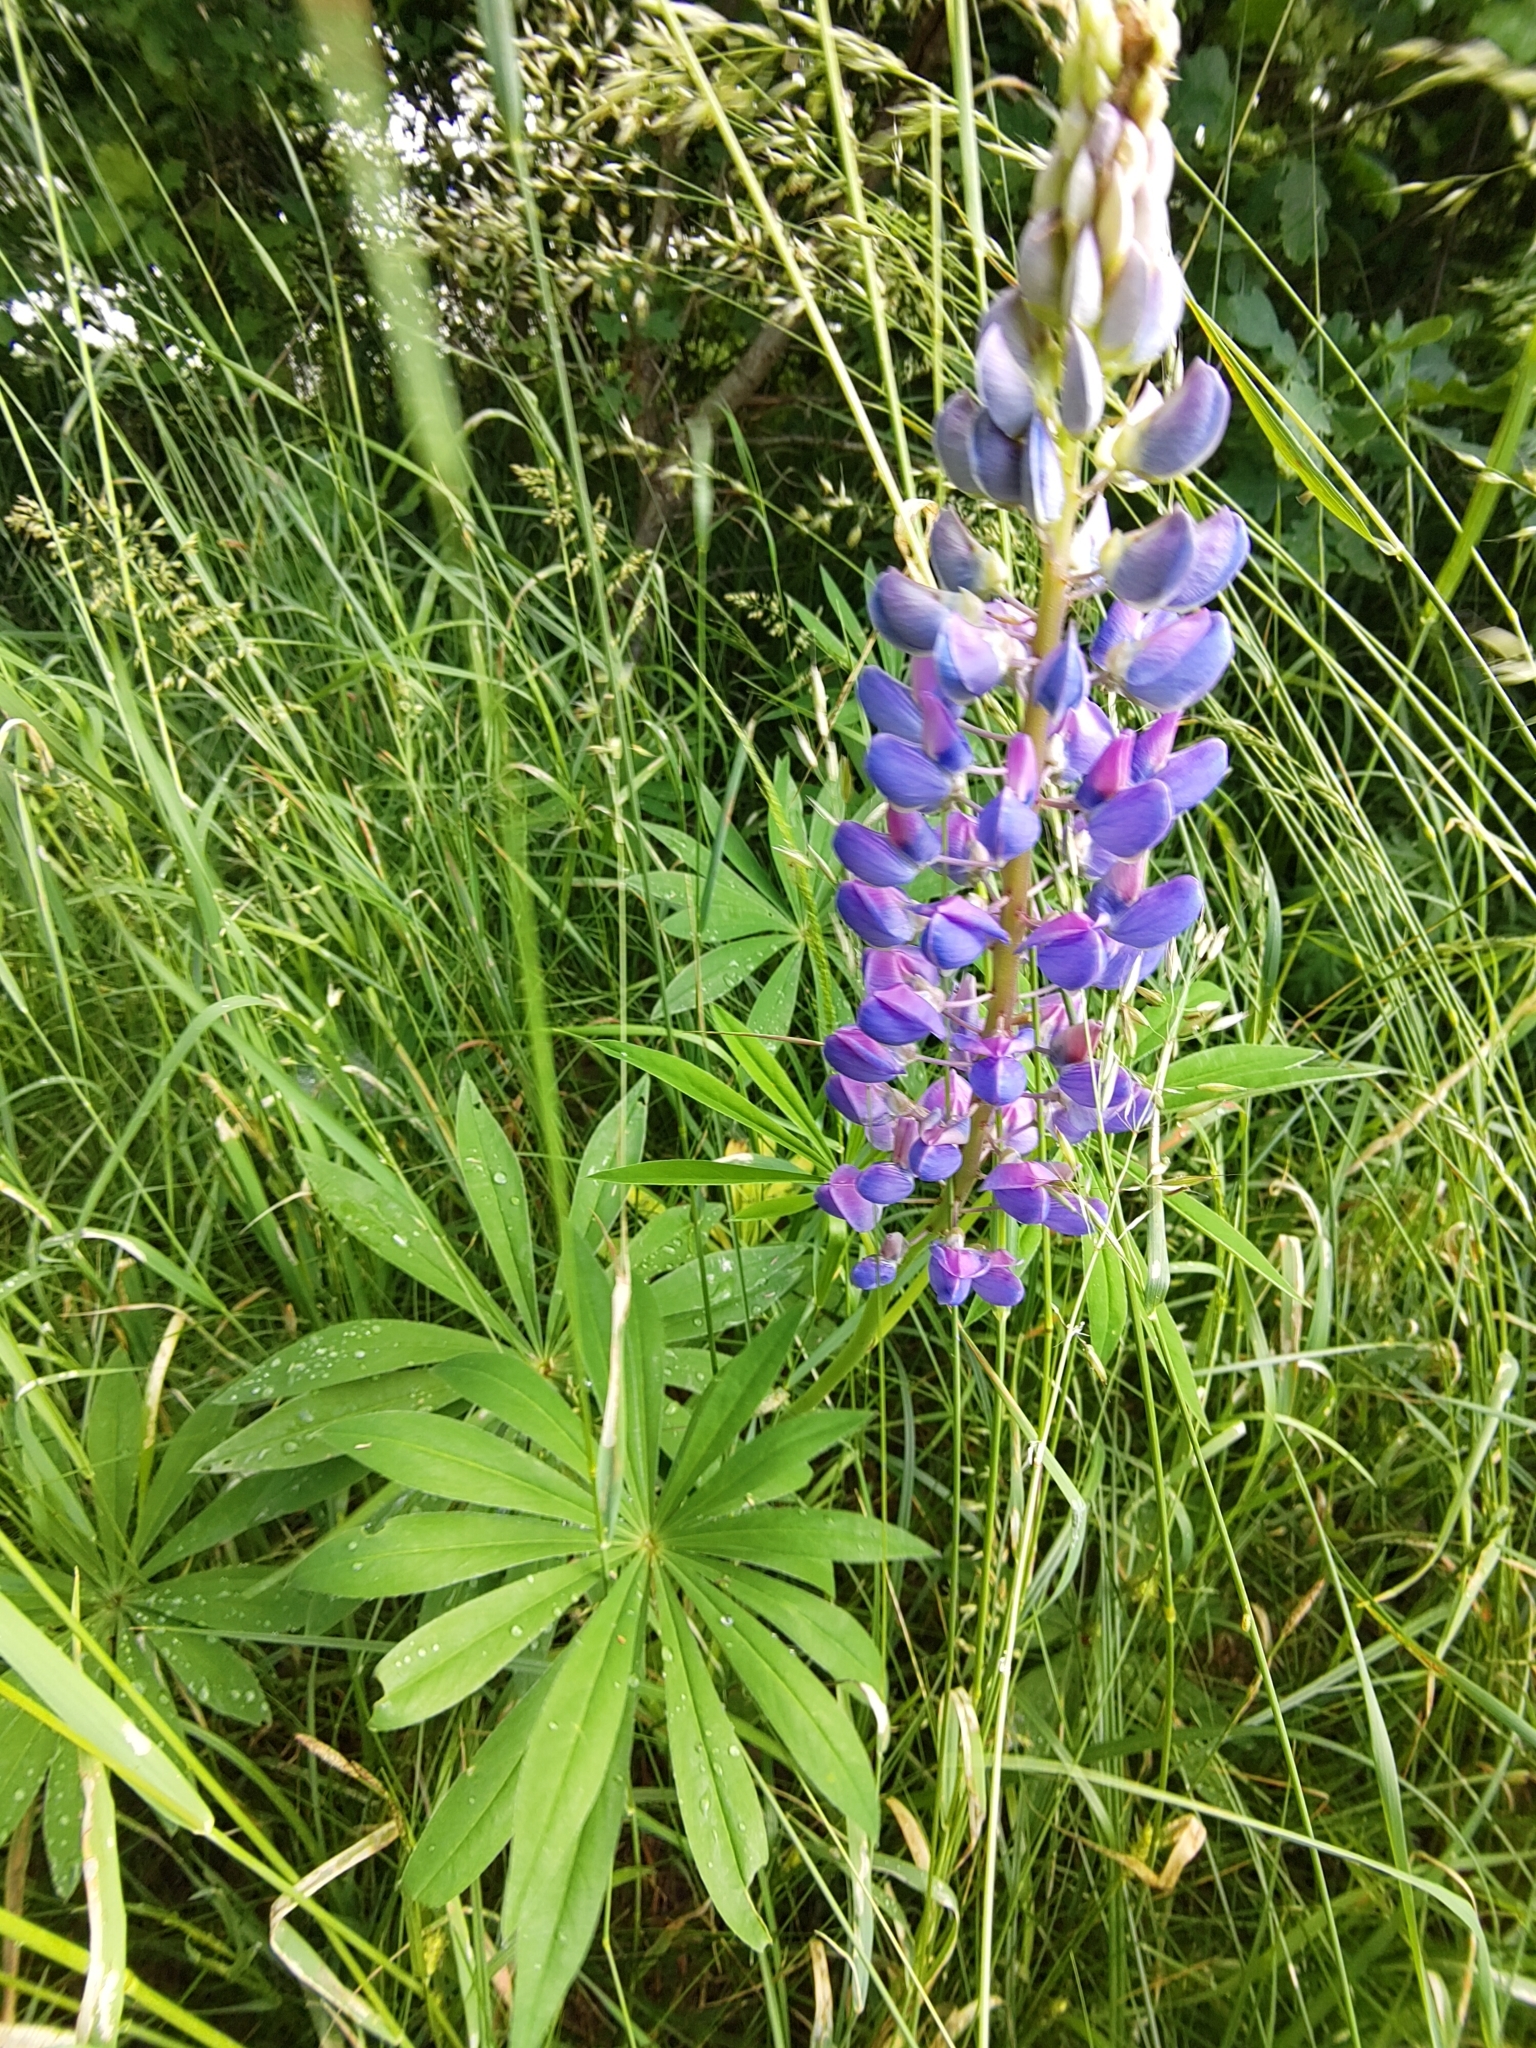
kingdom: Plantae
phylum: Tracheophyta
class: Magnoliopsida
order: Fabales
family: Fabaceae
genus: Lupinus
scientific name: Lupinus polyphyllus
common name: Garden lupin
